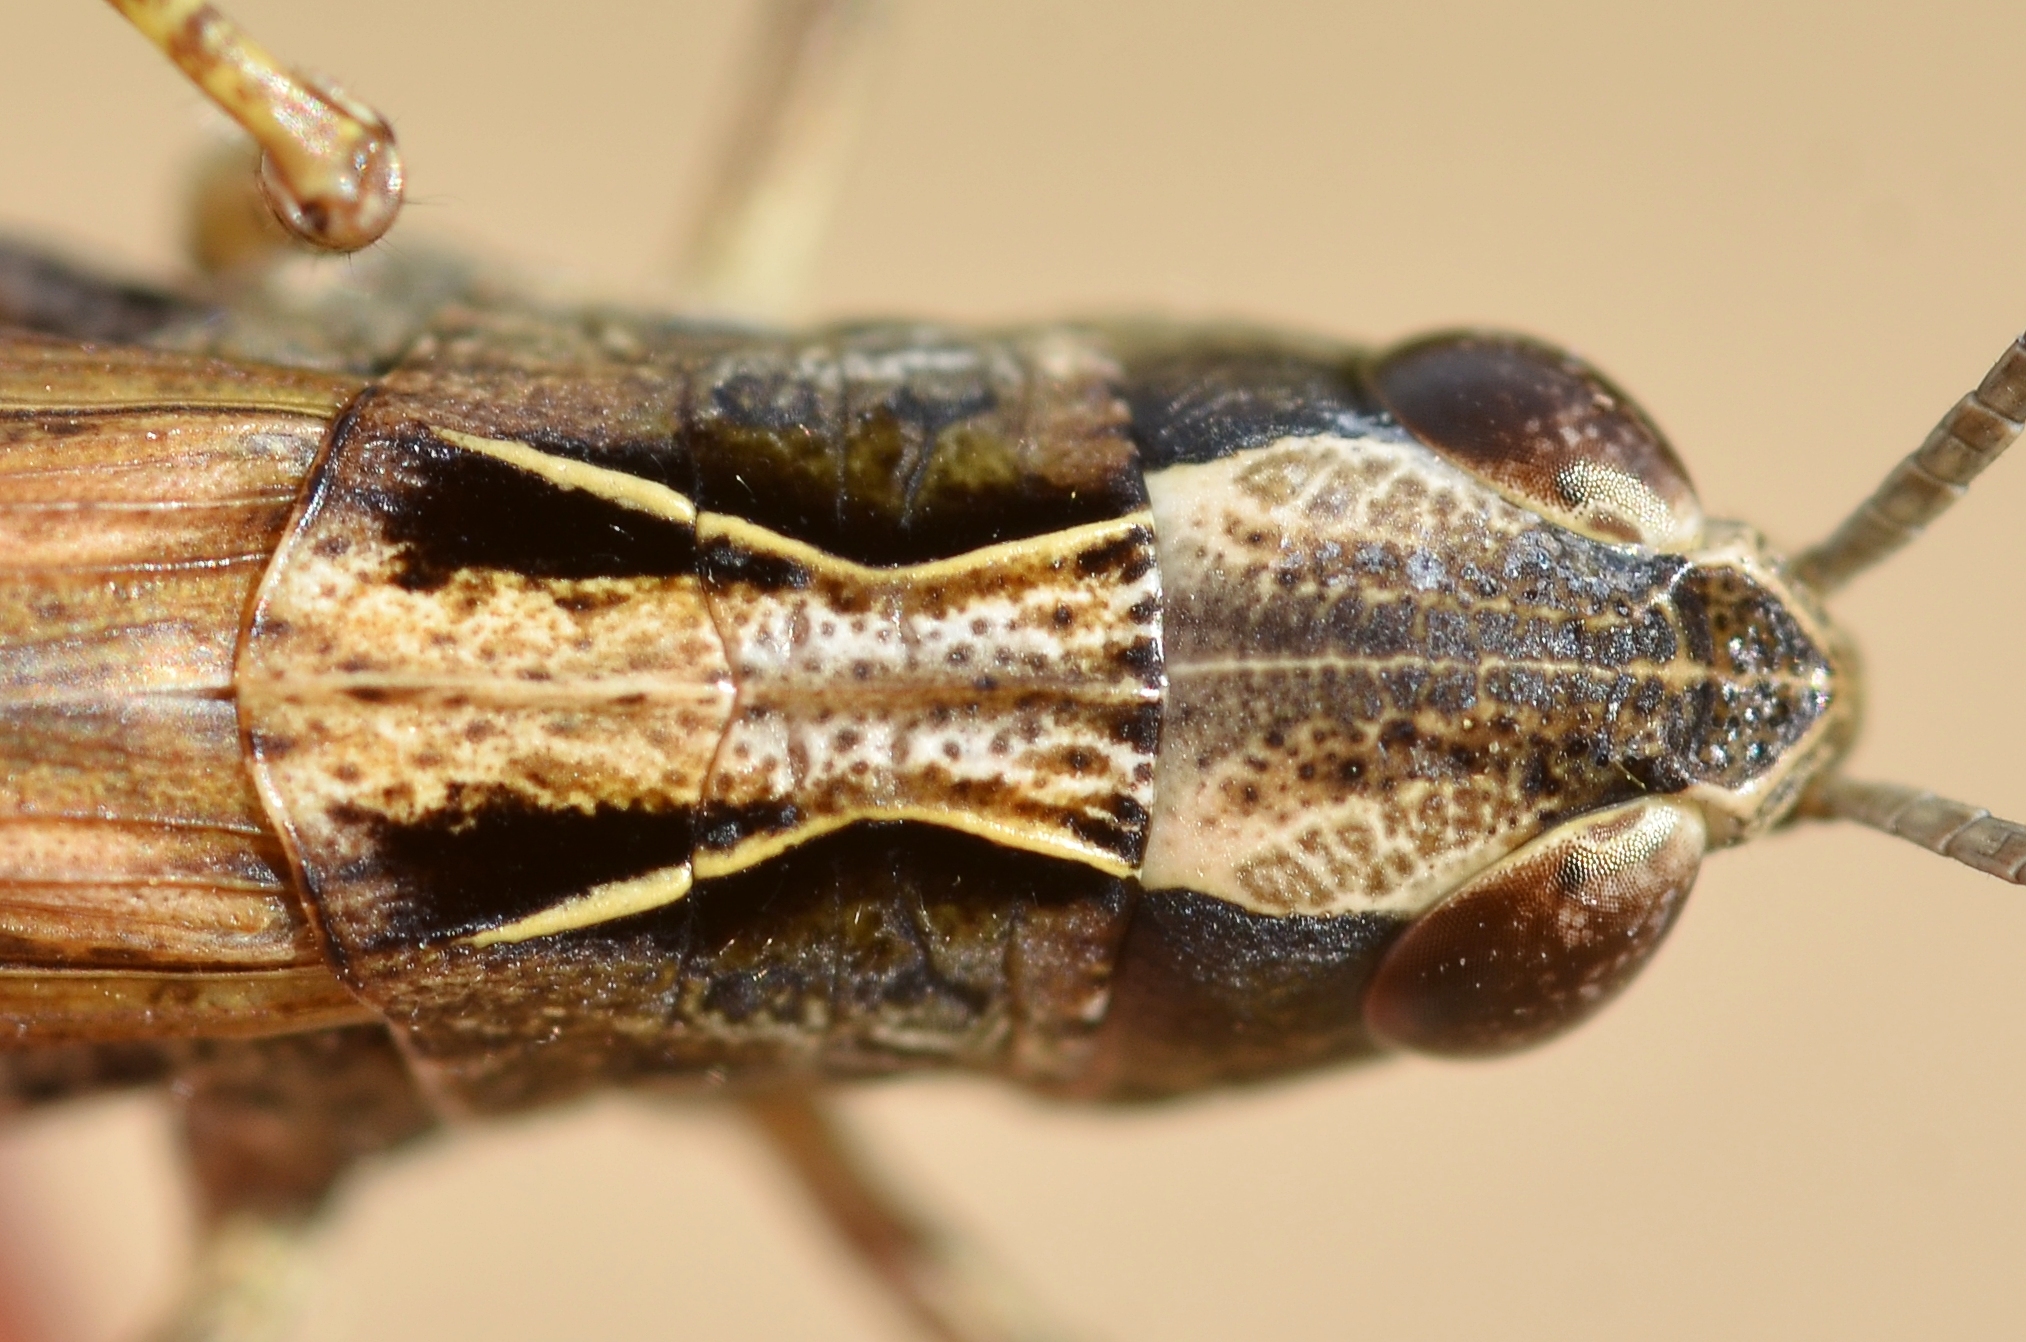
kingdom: Animalia
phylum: Arthropoda
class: Insecta
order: Orthoptera
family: Acrididae
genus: Chorthippus
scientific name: Chorthippus saulcyi
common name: French grasshopper
